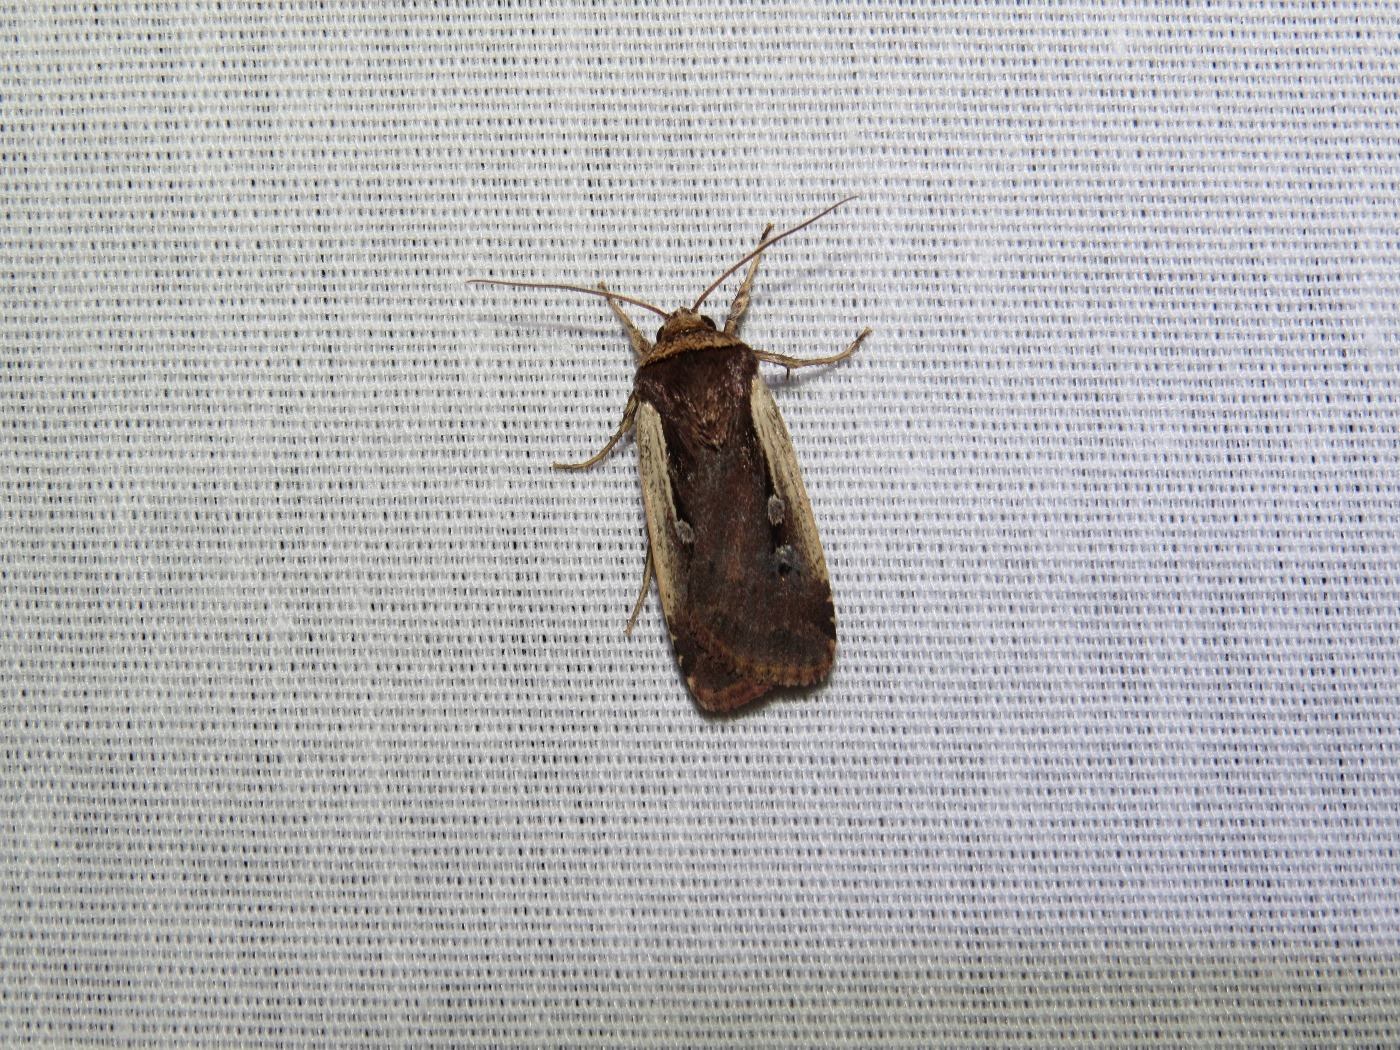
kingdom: Animalia
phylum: Arthropoda
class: Insecta
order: Lepidoptera
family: Noctuidae
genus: Ochropleura
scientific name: Ochropleura implecta
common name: Flame-shouldered dart
